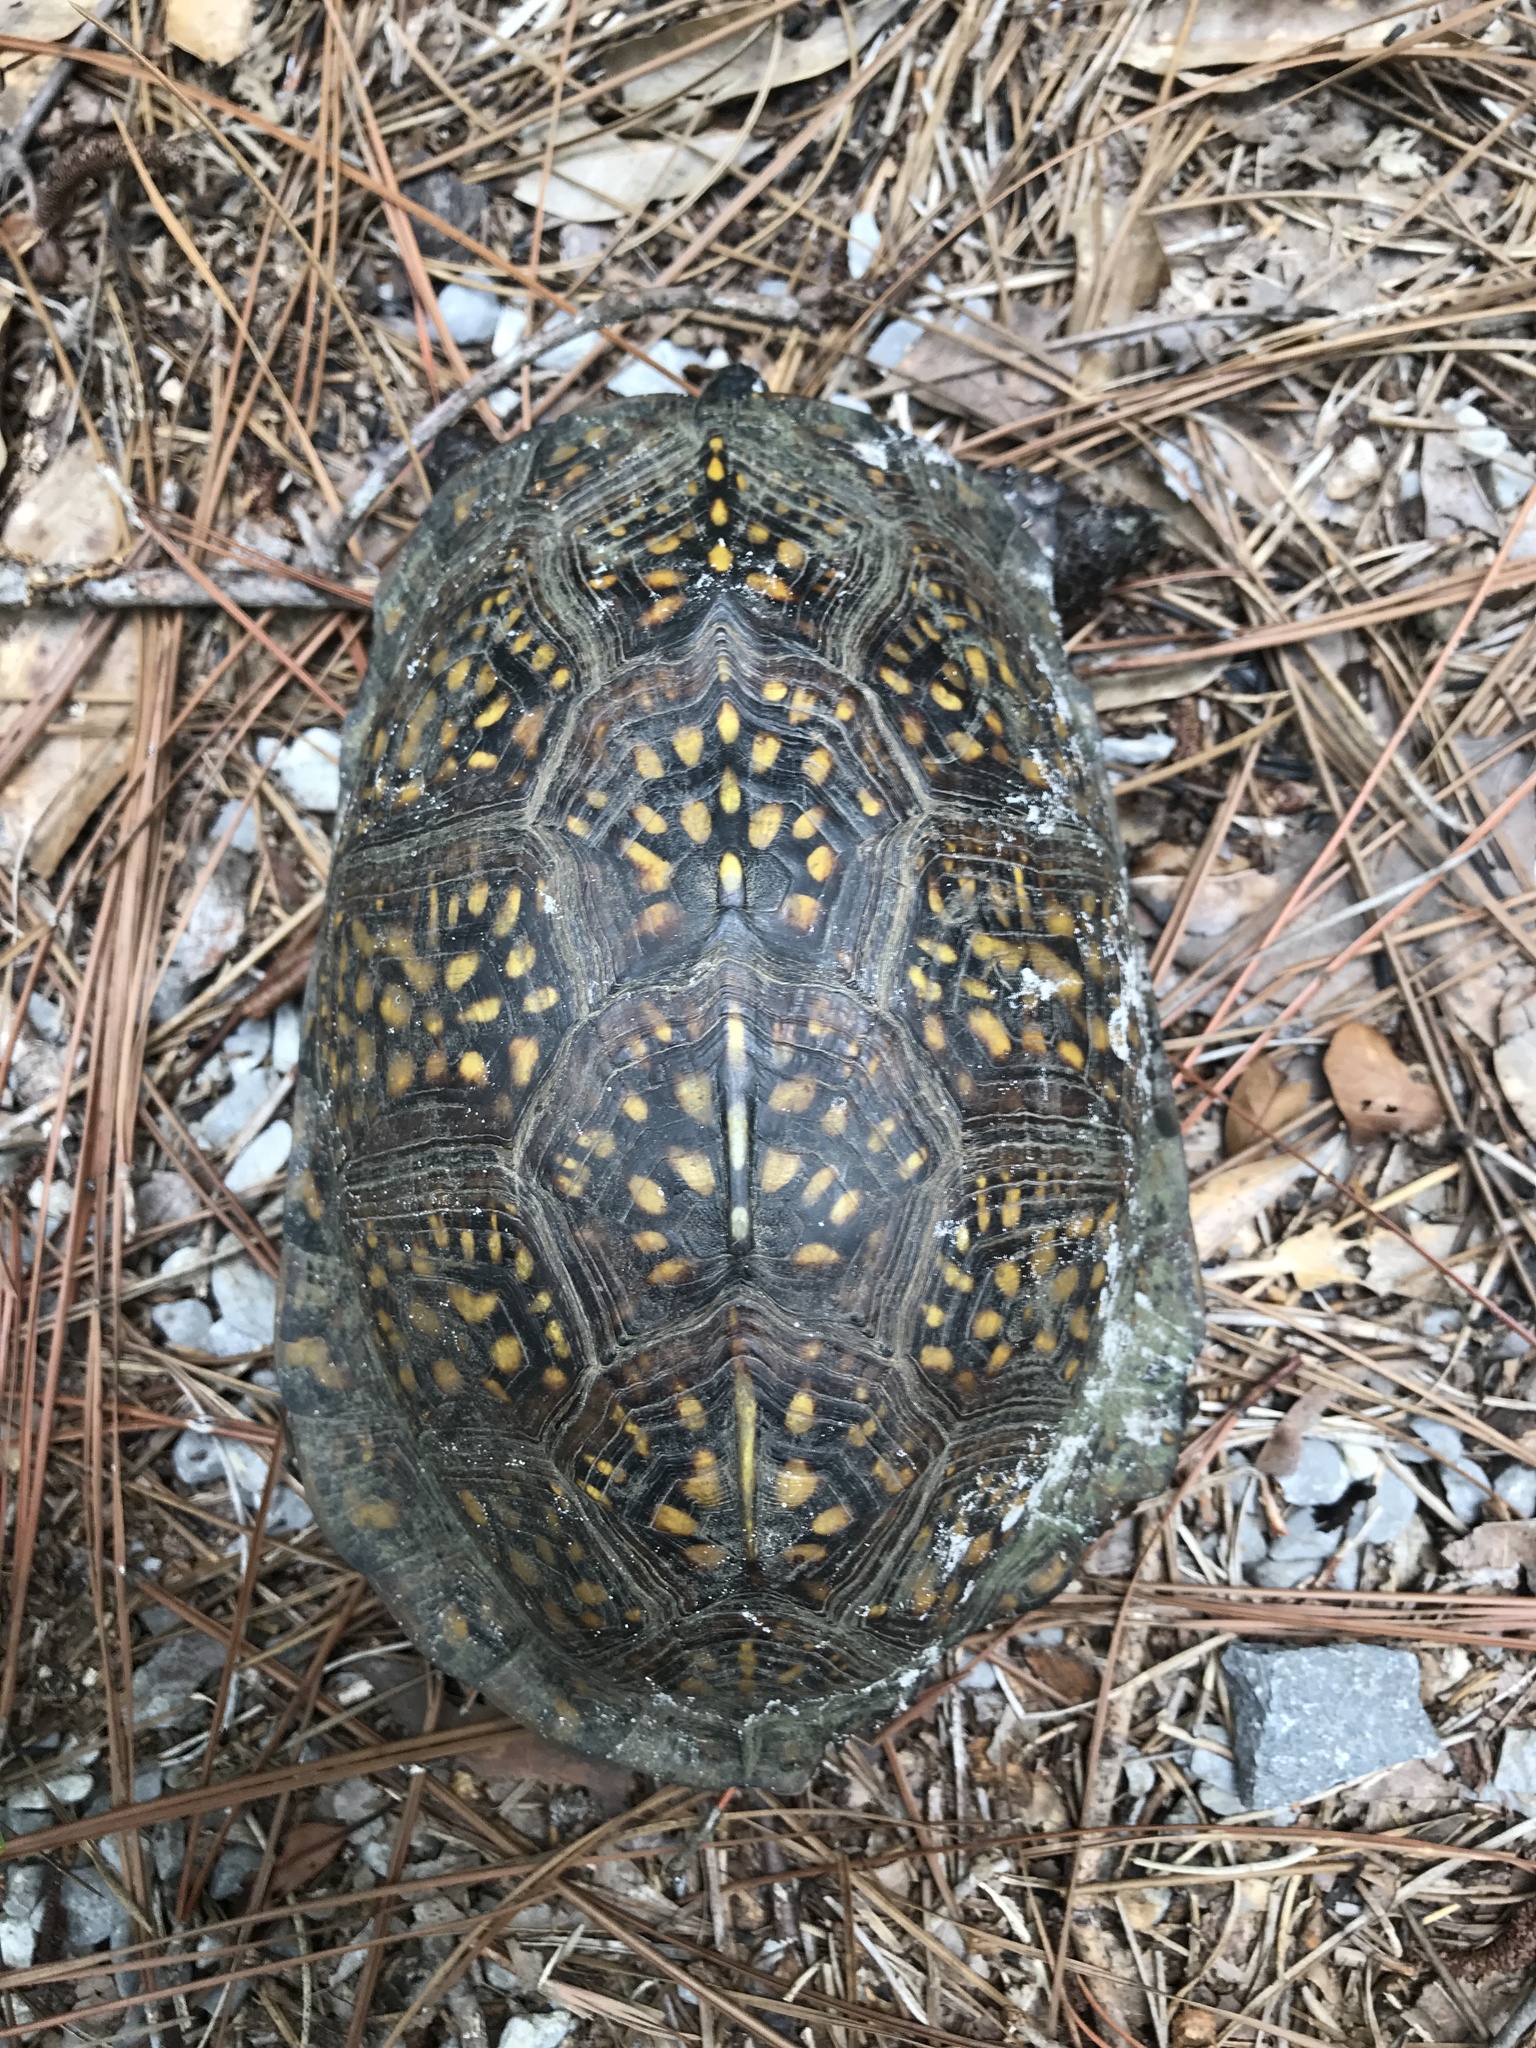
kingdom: Animalia
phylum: Chordata
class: Testudines
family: Emydidae
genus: Terrapene
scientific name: Terrapene carolina
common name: Common box turtle
